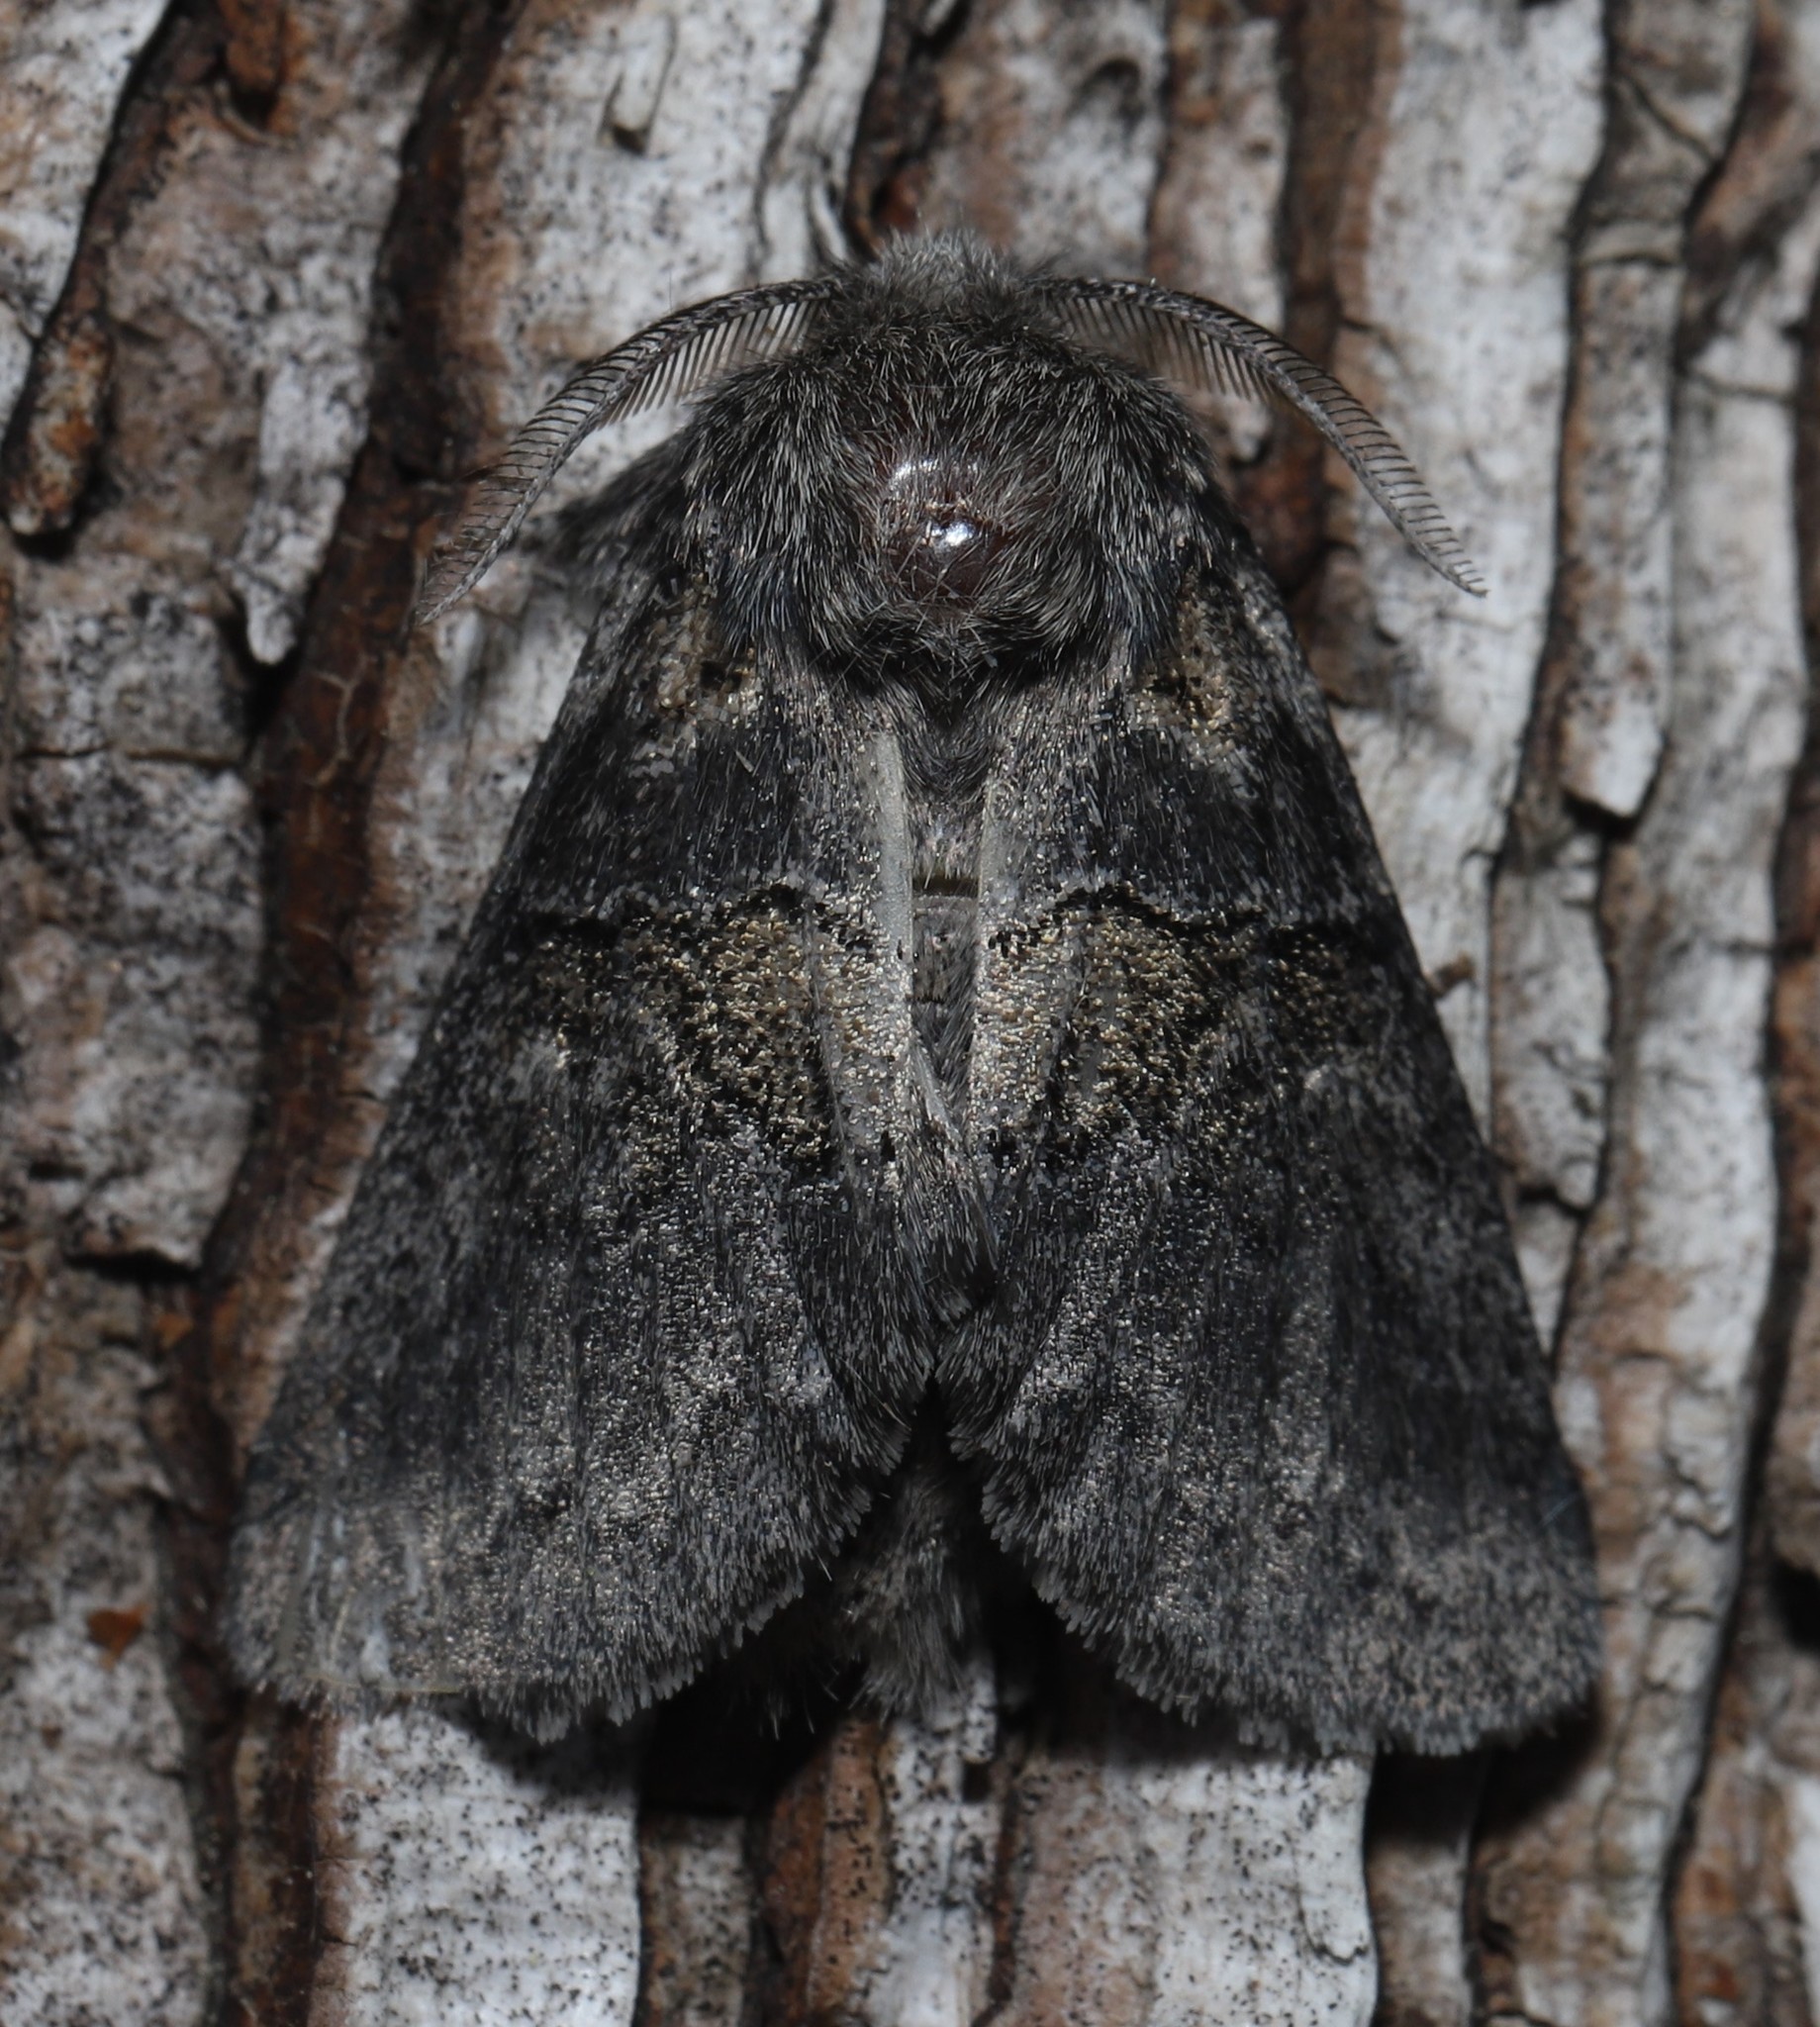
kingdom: Animalia
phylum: Arthropoda
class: Insecta
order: Lepidoptera
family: Notodontidae
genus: Gluphisia
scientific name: Gluphisia septentrionis
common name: Common gluphisia
